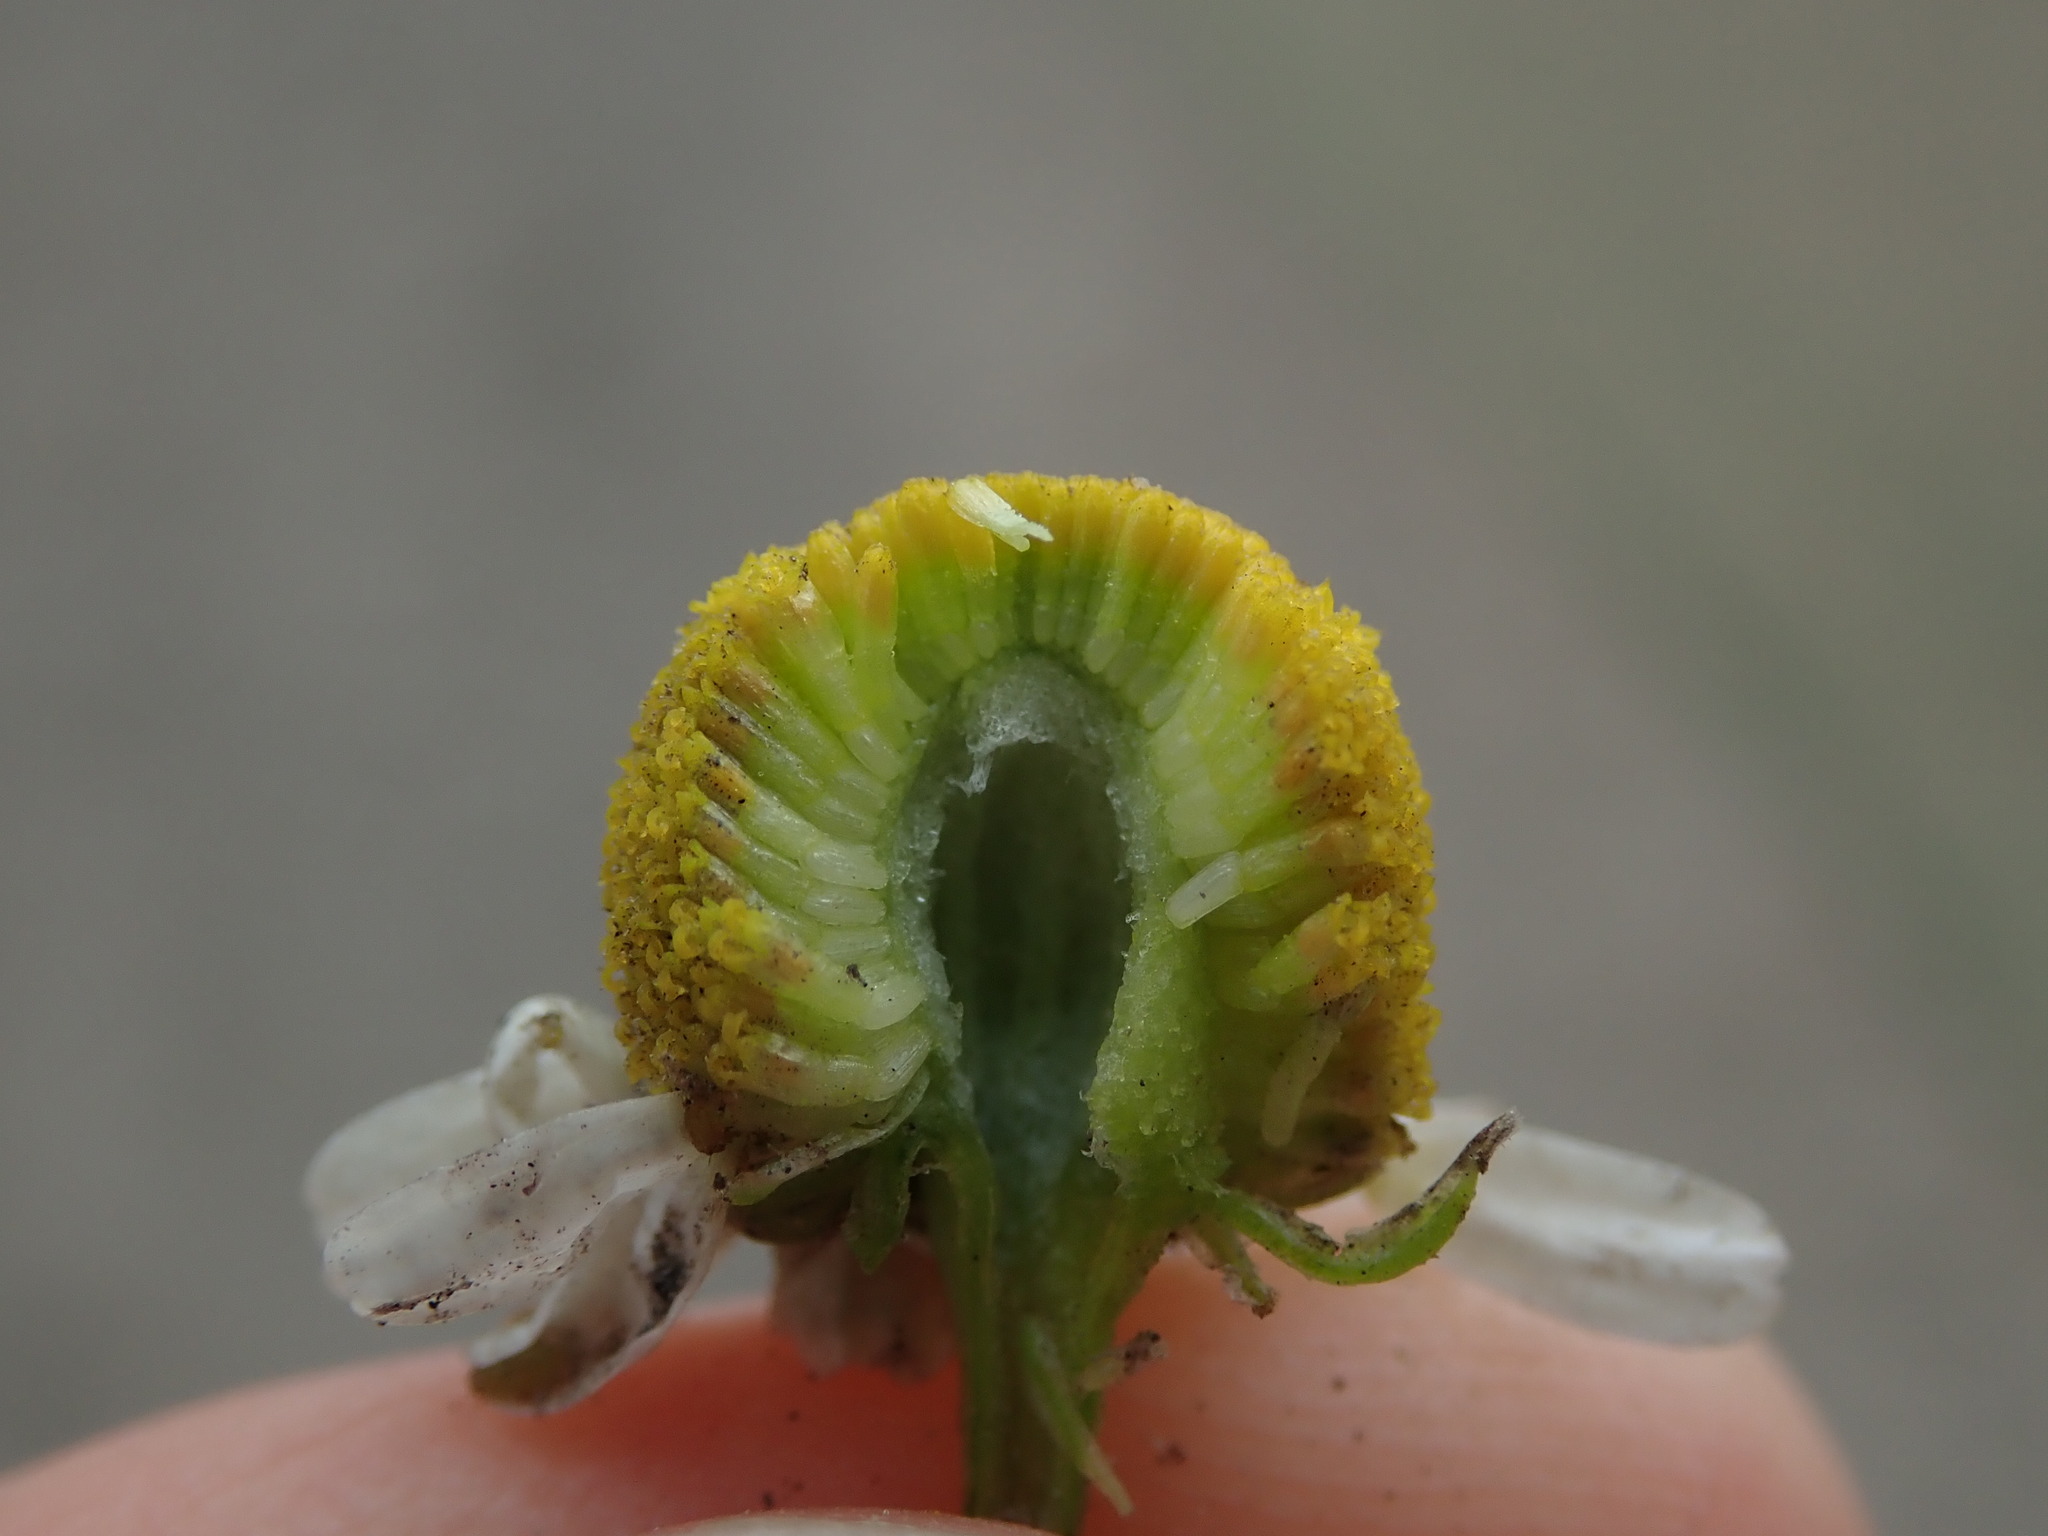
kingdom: Plantae
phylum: Tracheophyta
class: Magnoliopsida
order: Asterales
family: Asteraceae
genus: Matricaria
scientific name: Matricaria chamomilla
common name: Scented mayweed
